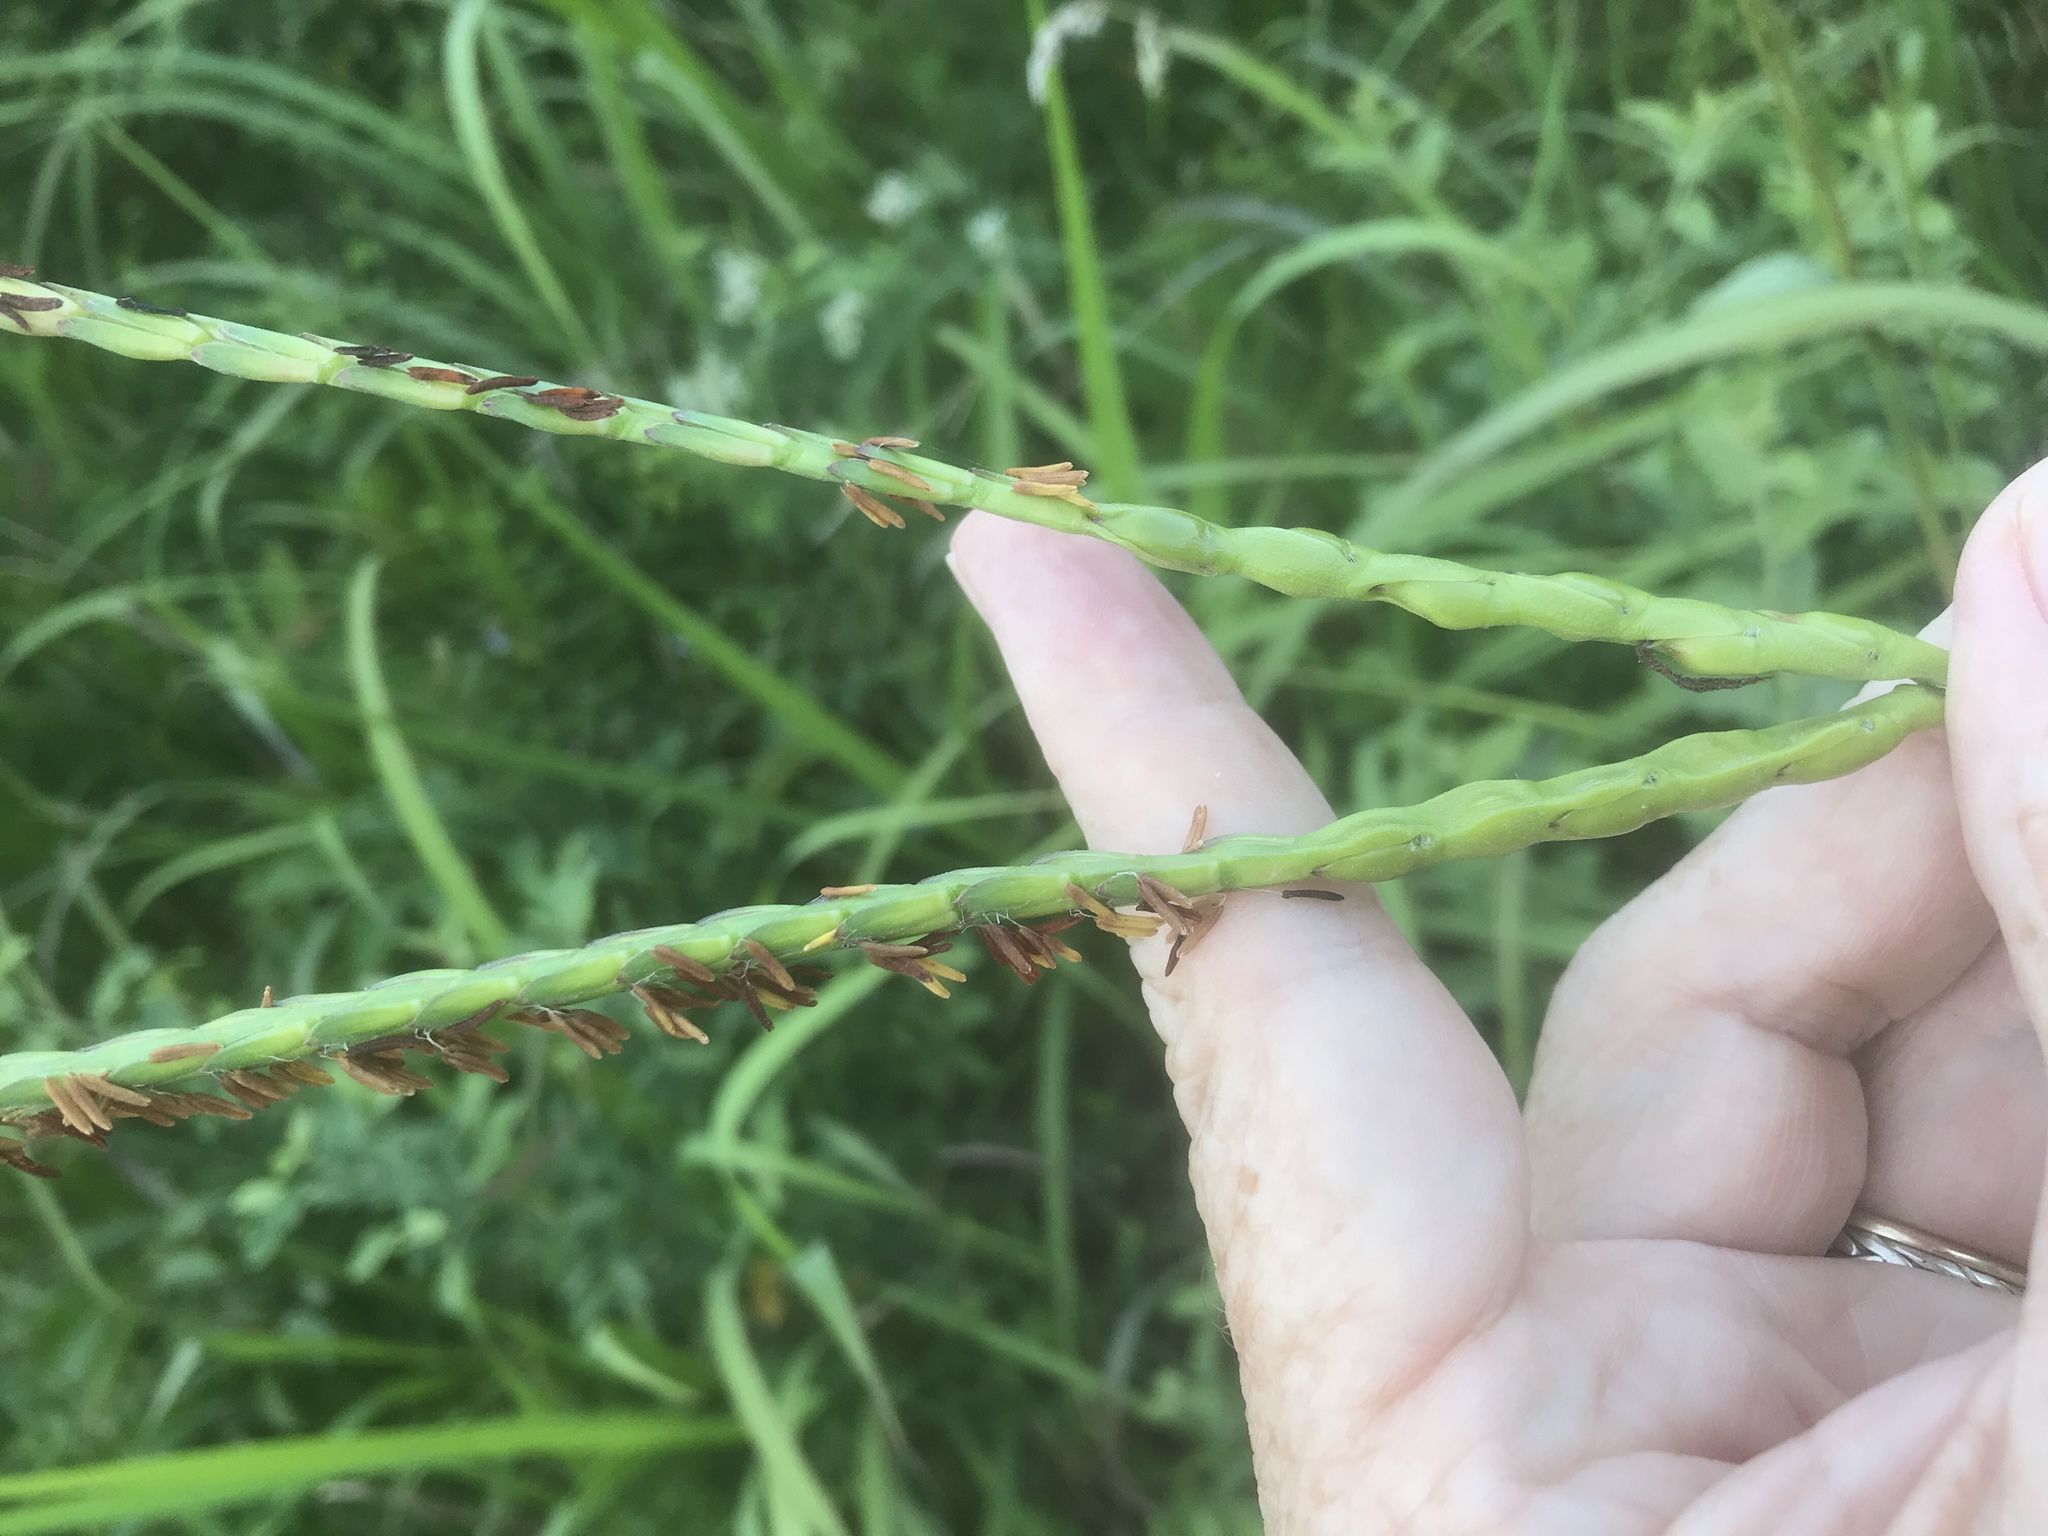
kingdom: Plantae
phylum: Tracheophyta
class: Liliopsida
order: Poales
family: Poaceae
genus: Tripsacum
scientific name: Tripsacum dactyloides
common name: Buffalo-grass
